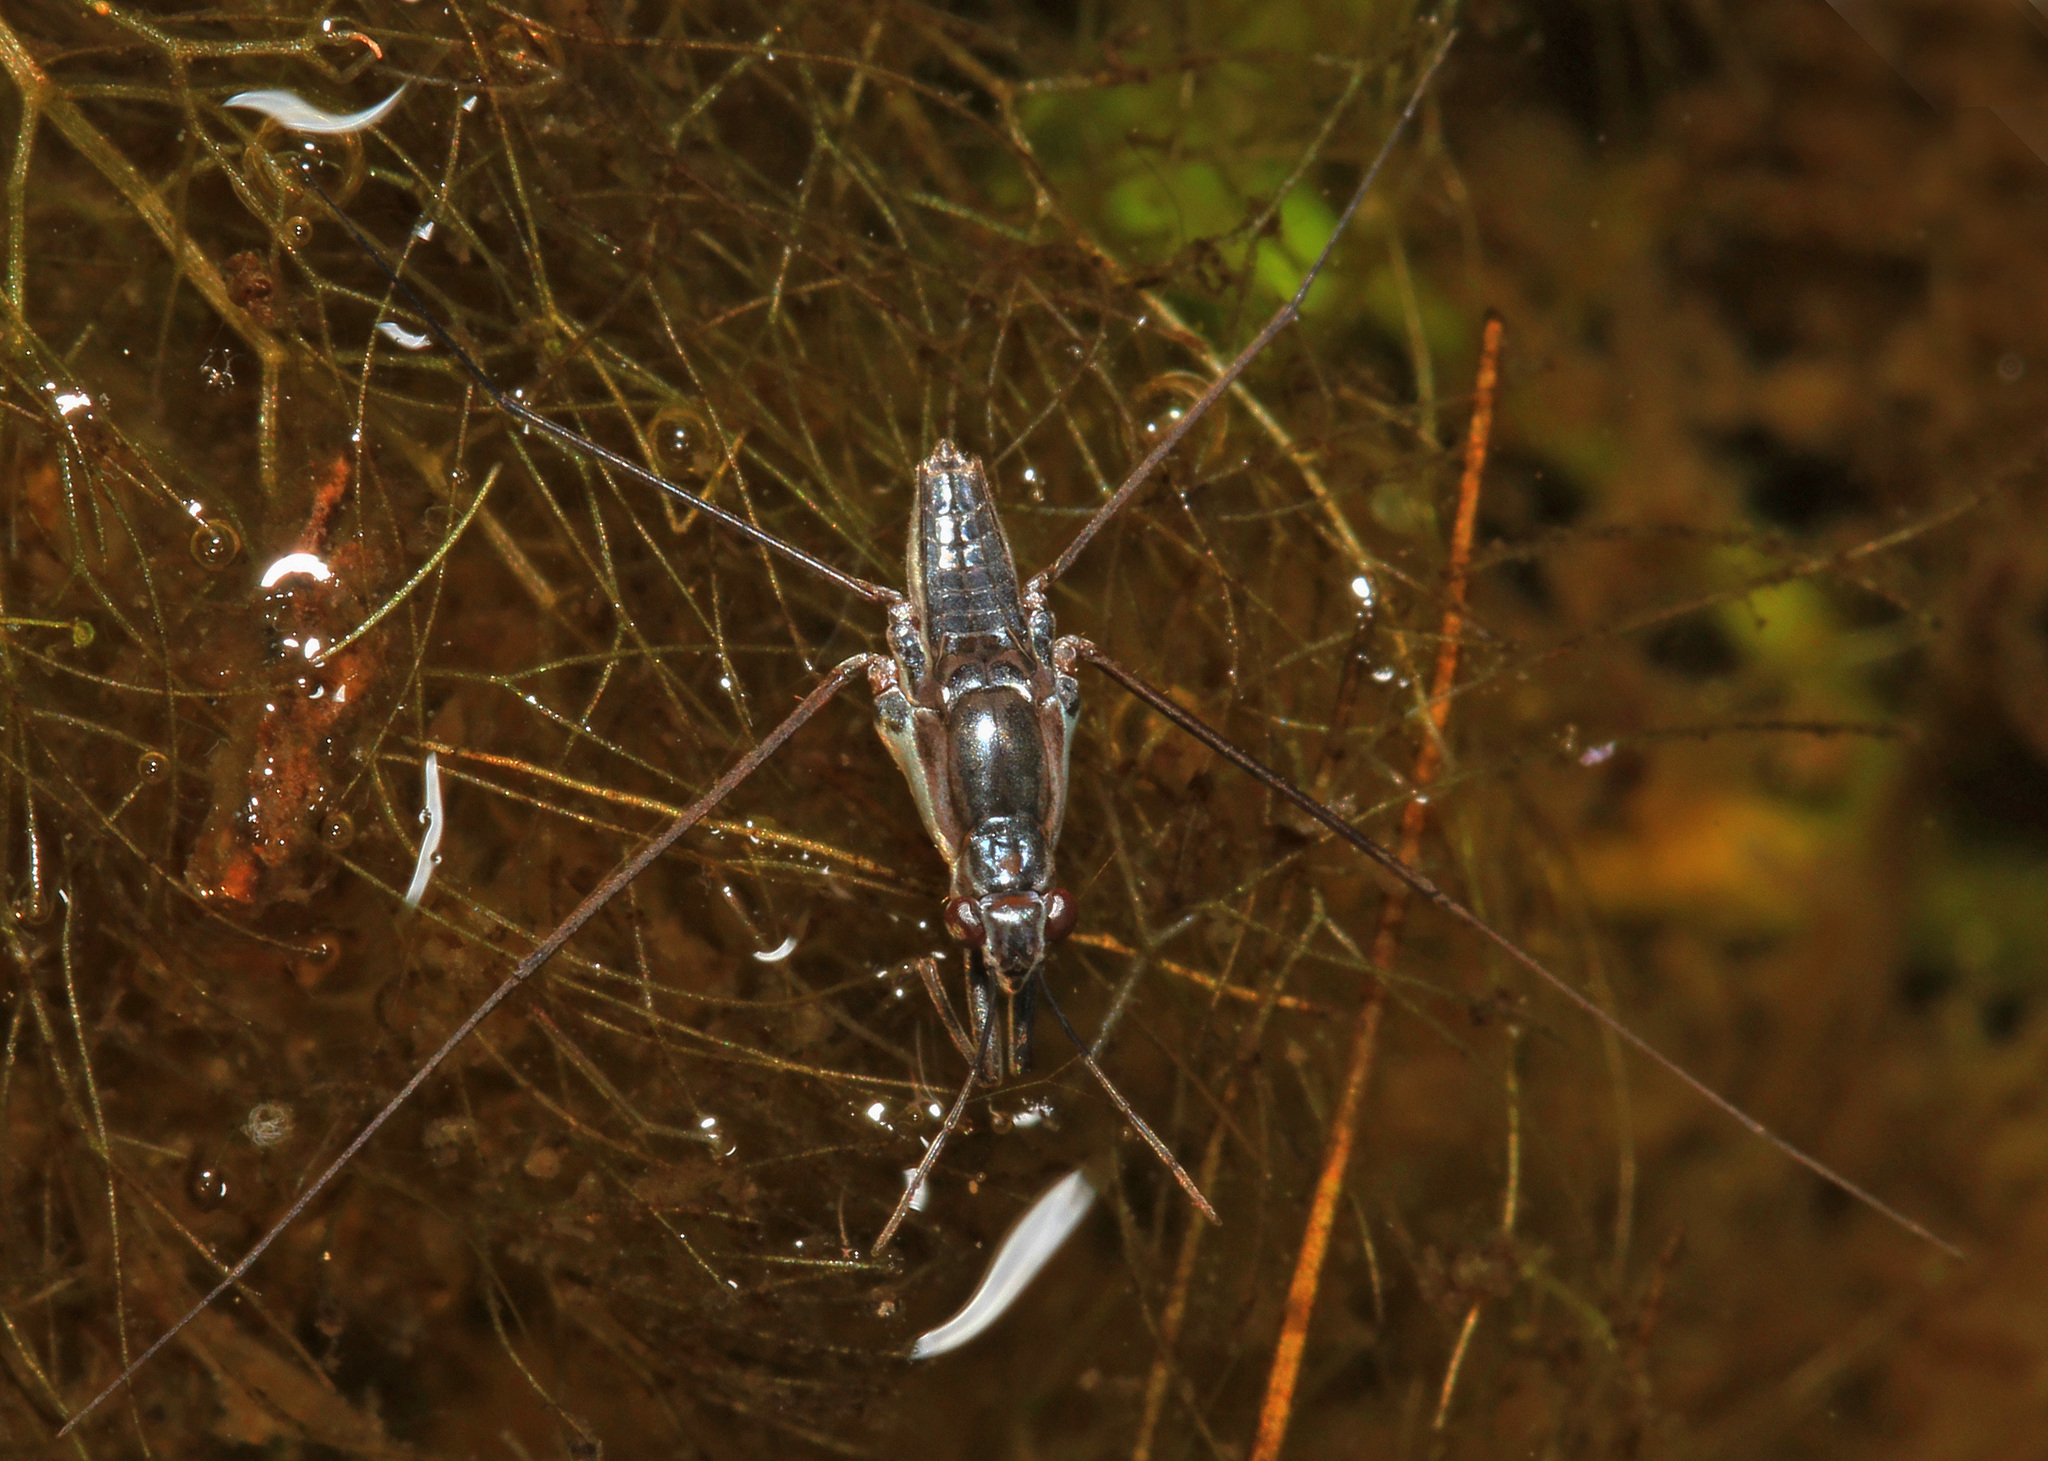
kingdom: Animalia
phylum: Arthropoda
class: Insecta
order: Hemiptera
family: Gerridae
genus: Neogerris
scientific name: Neogerris hesione
